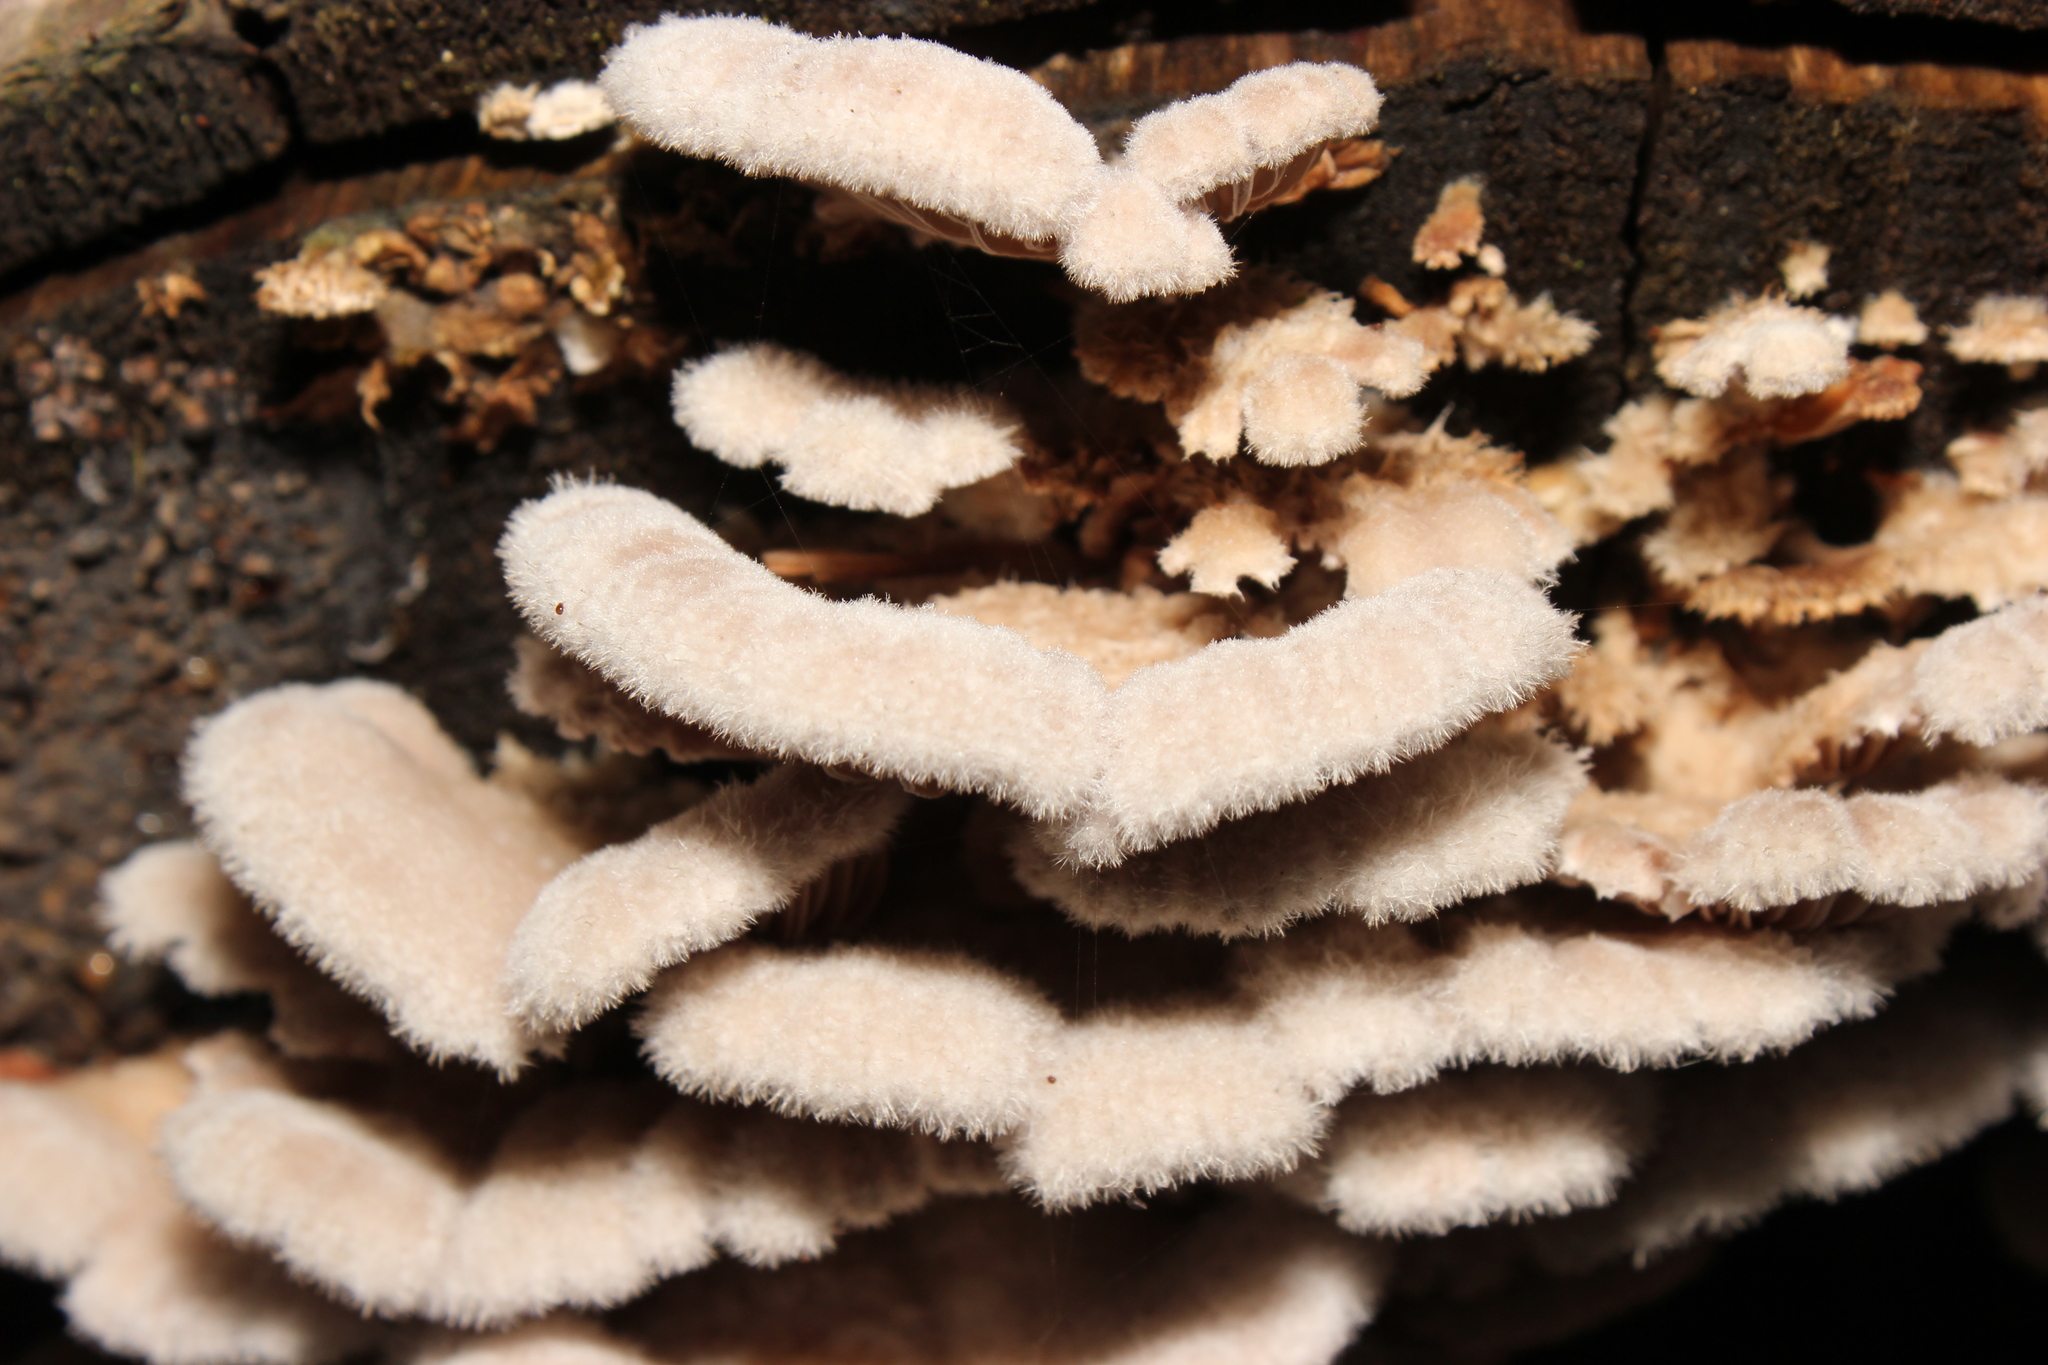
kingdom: Fungi
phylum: Basidiomycota
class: Agaricomycetes
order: Agaricales
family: Schizophyllaceae
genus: Schizophyllum
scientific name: Schizophyllum commune
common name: Common porecrust
